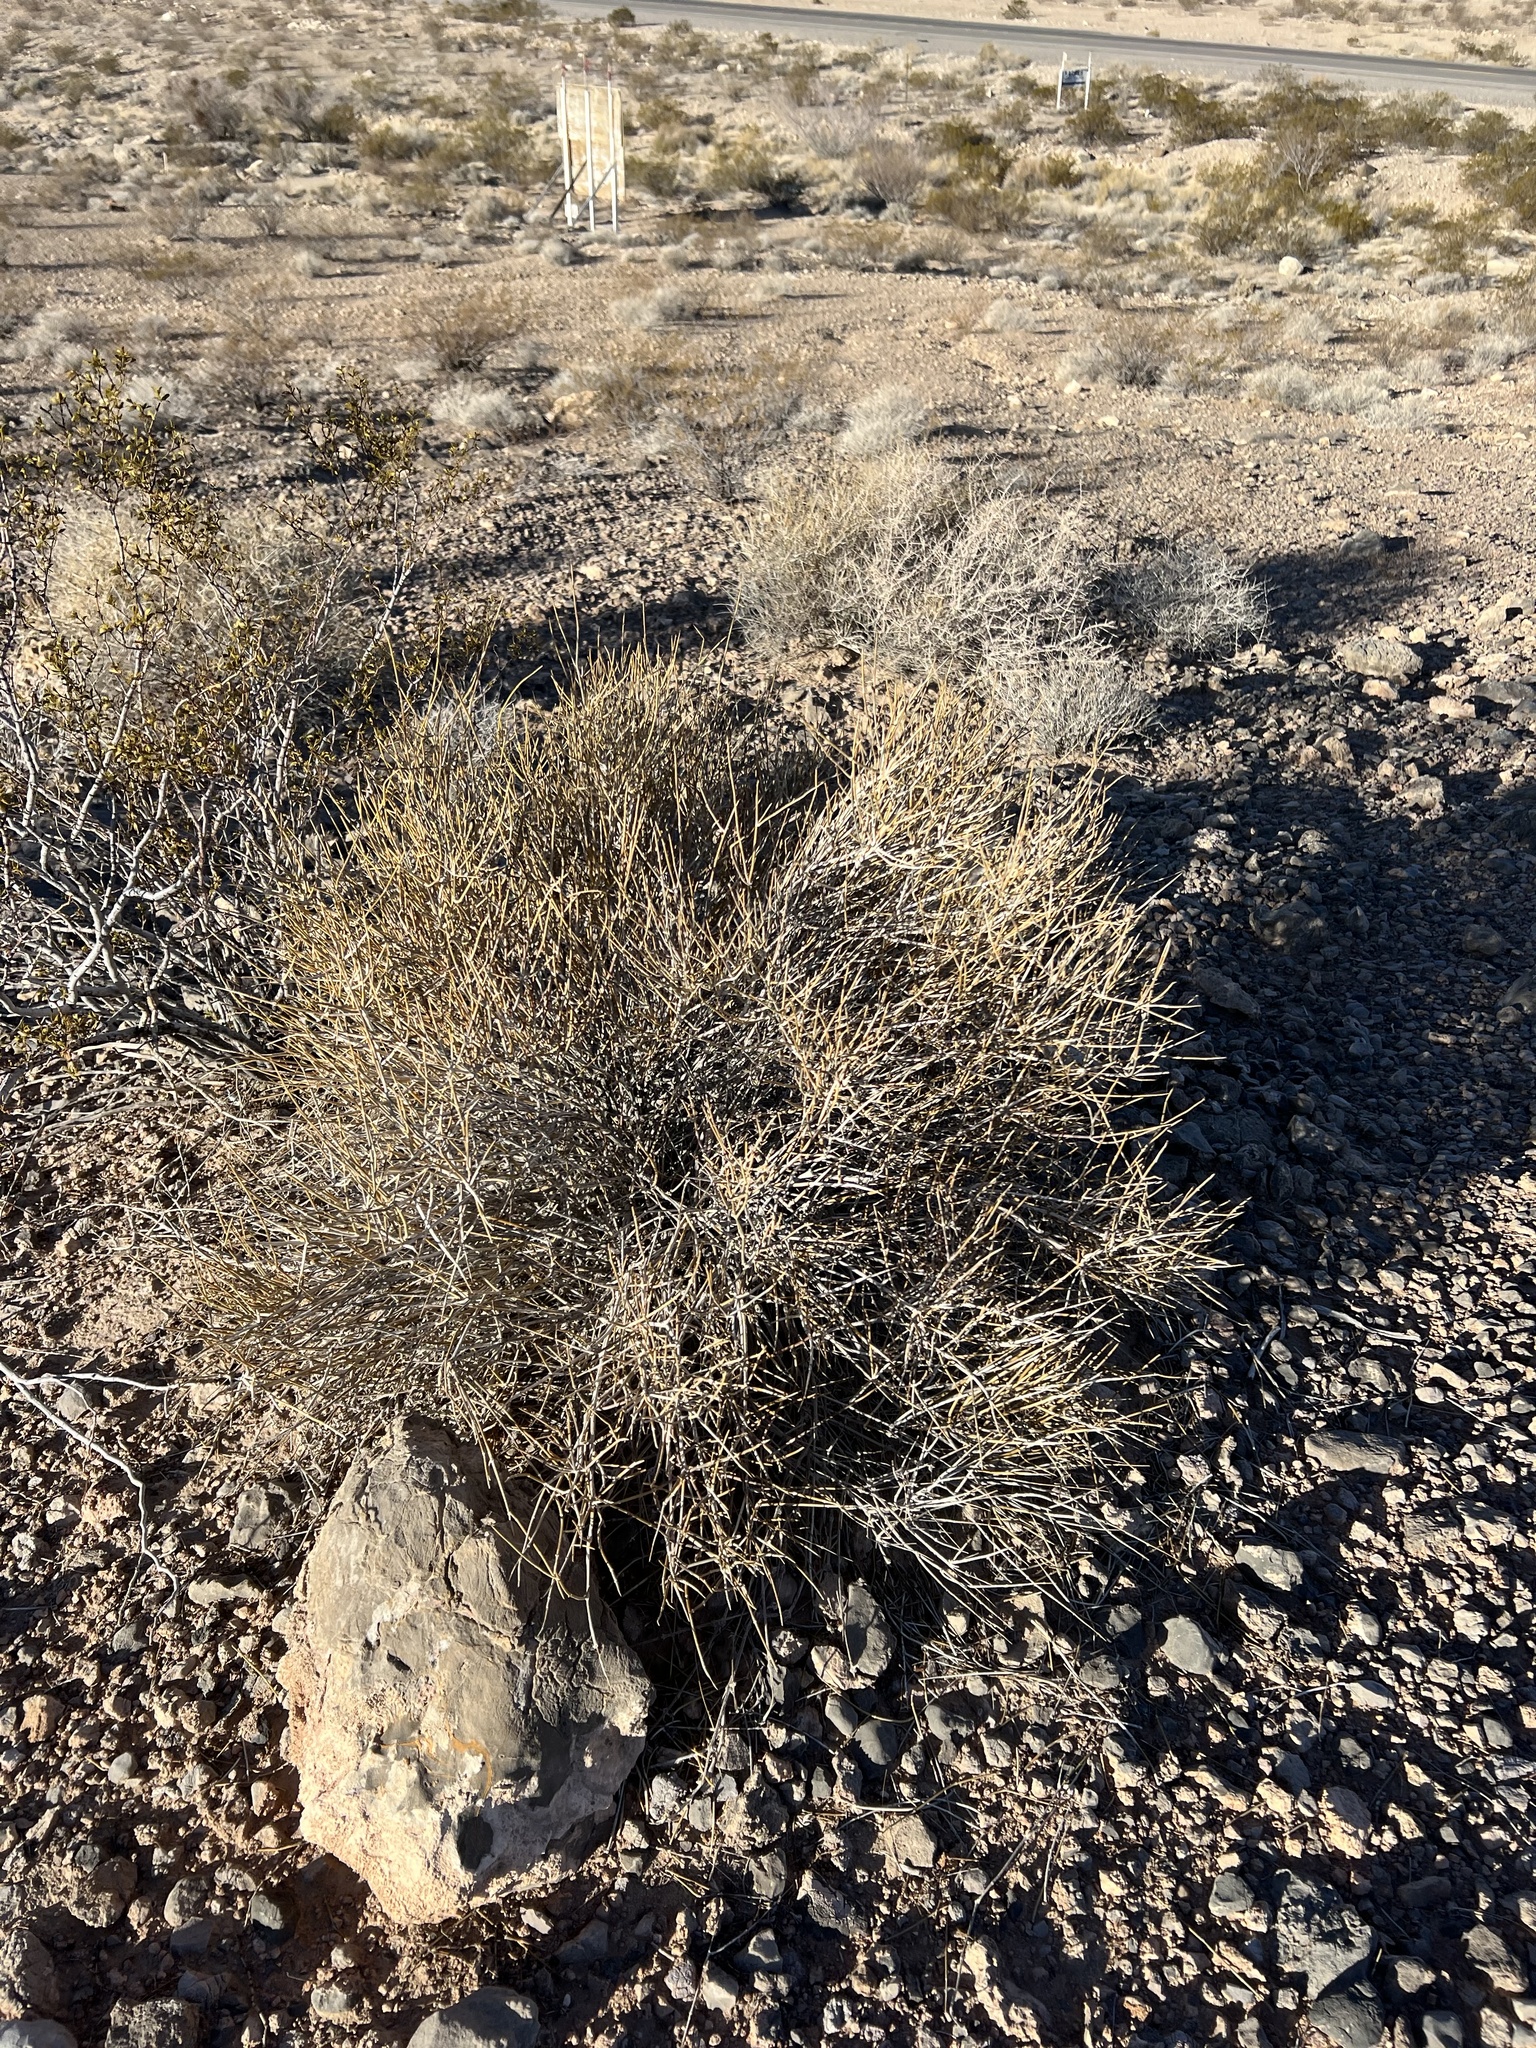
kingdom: Plantae
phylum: Tracheophyta
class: Gnetopsida
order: Ephedrales
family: Ephedraceae
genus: Ephedra
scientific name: Ephedra nevadensis
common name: Gray ephedra
